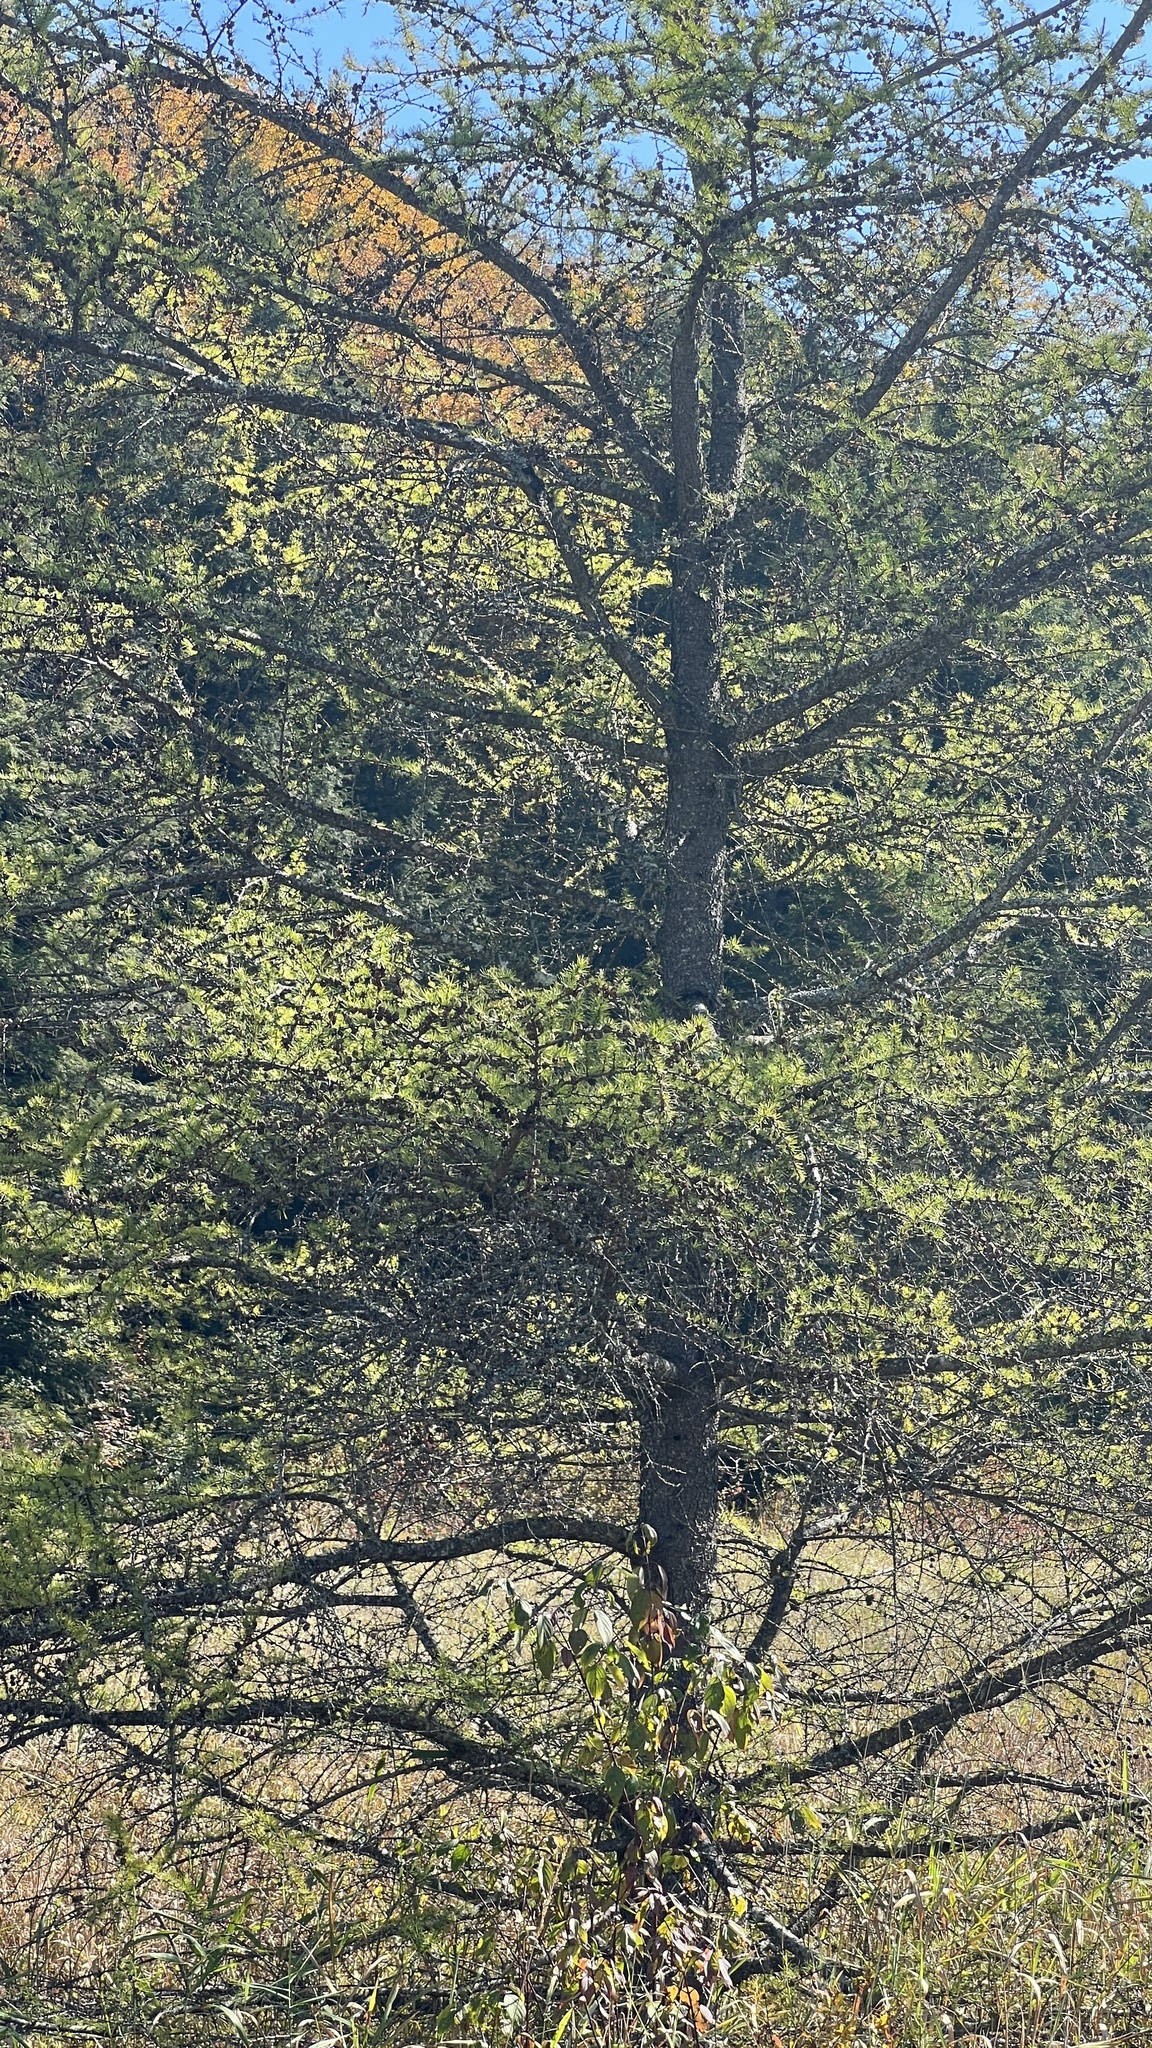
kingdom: Plantae
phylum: Tracheophyta
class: Pinopsida
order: Pinales
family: Pinaceae
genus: Larix
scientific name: Larix laricina
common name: American larch
